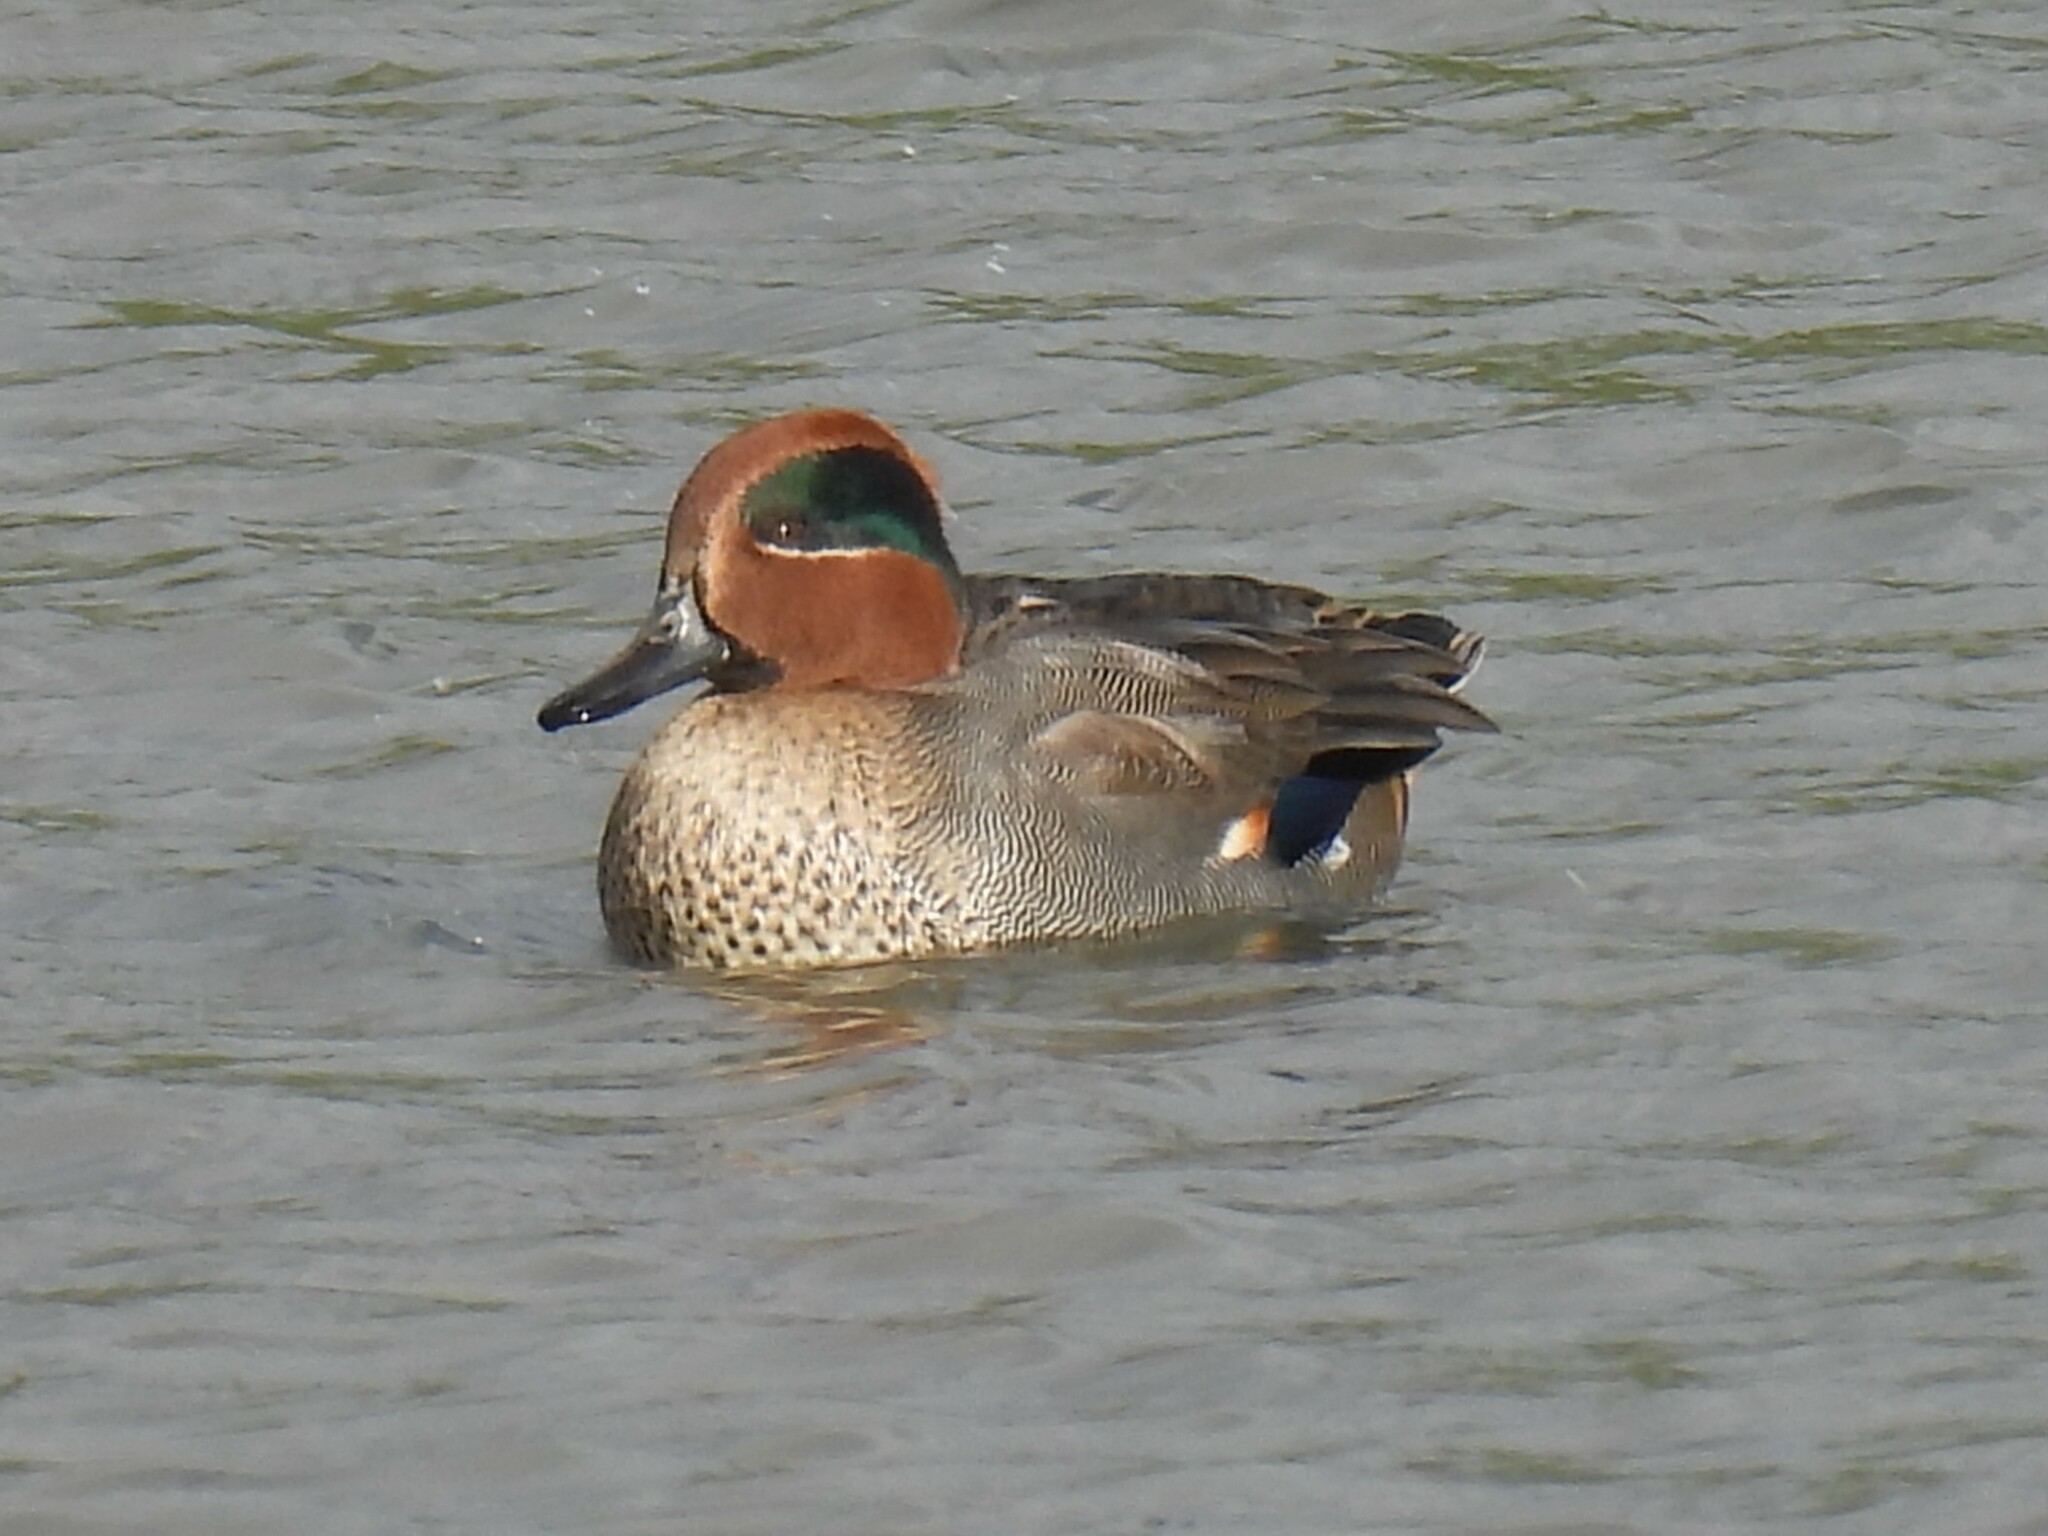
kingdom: Animalia
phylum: Chordata
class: Aves
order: Anseriformes
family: Anatidae
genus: Anas
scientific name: Anas crecca
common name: Eurasian teal
